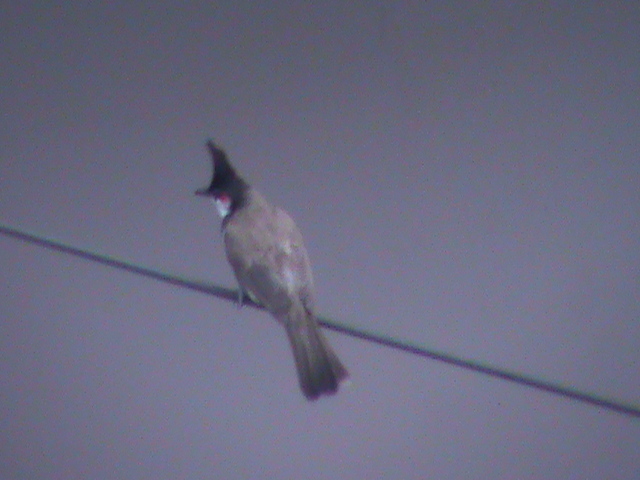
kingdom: Animalia
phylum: Chordata
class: Aves
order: Passeriformes
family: Pycnonotidae
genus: Pycnonotus
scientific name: Pycnonotus jocosus
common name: Red-whiskered bulbul
